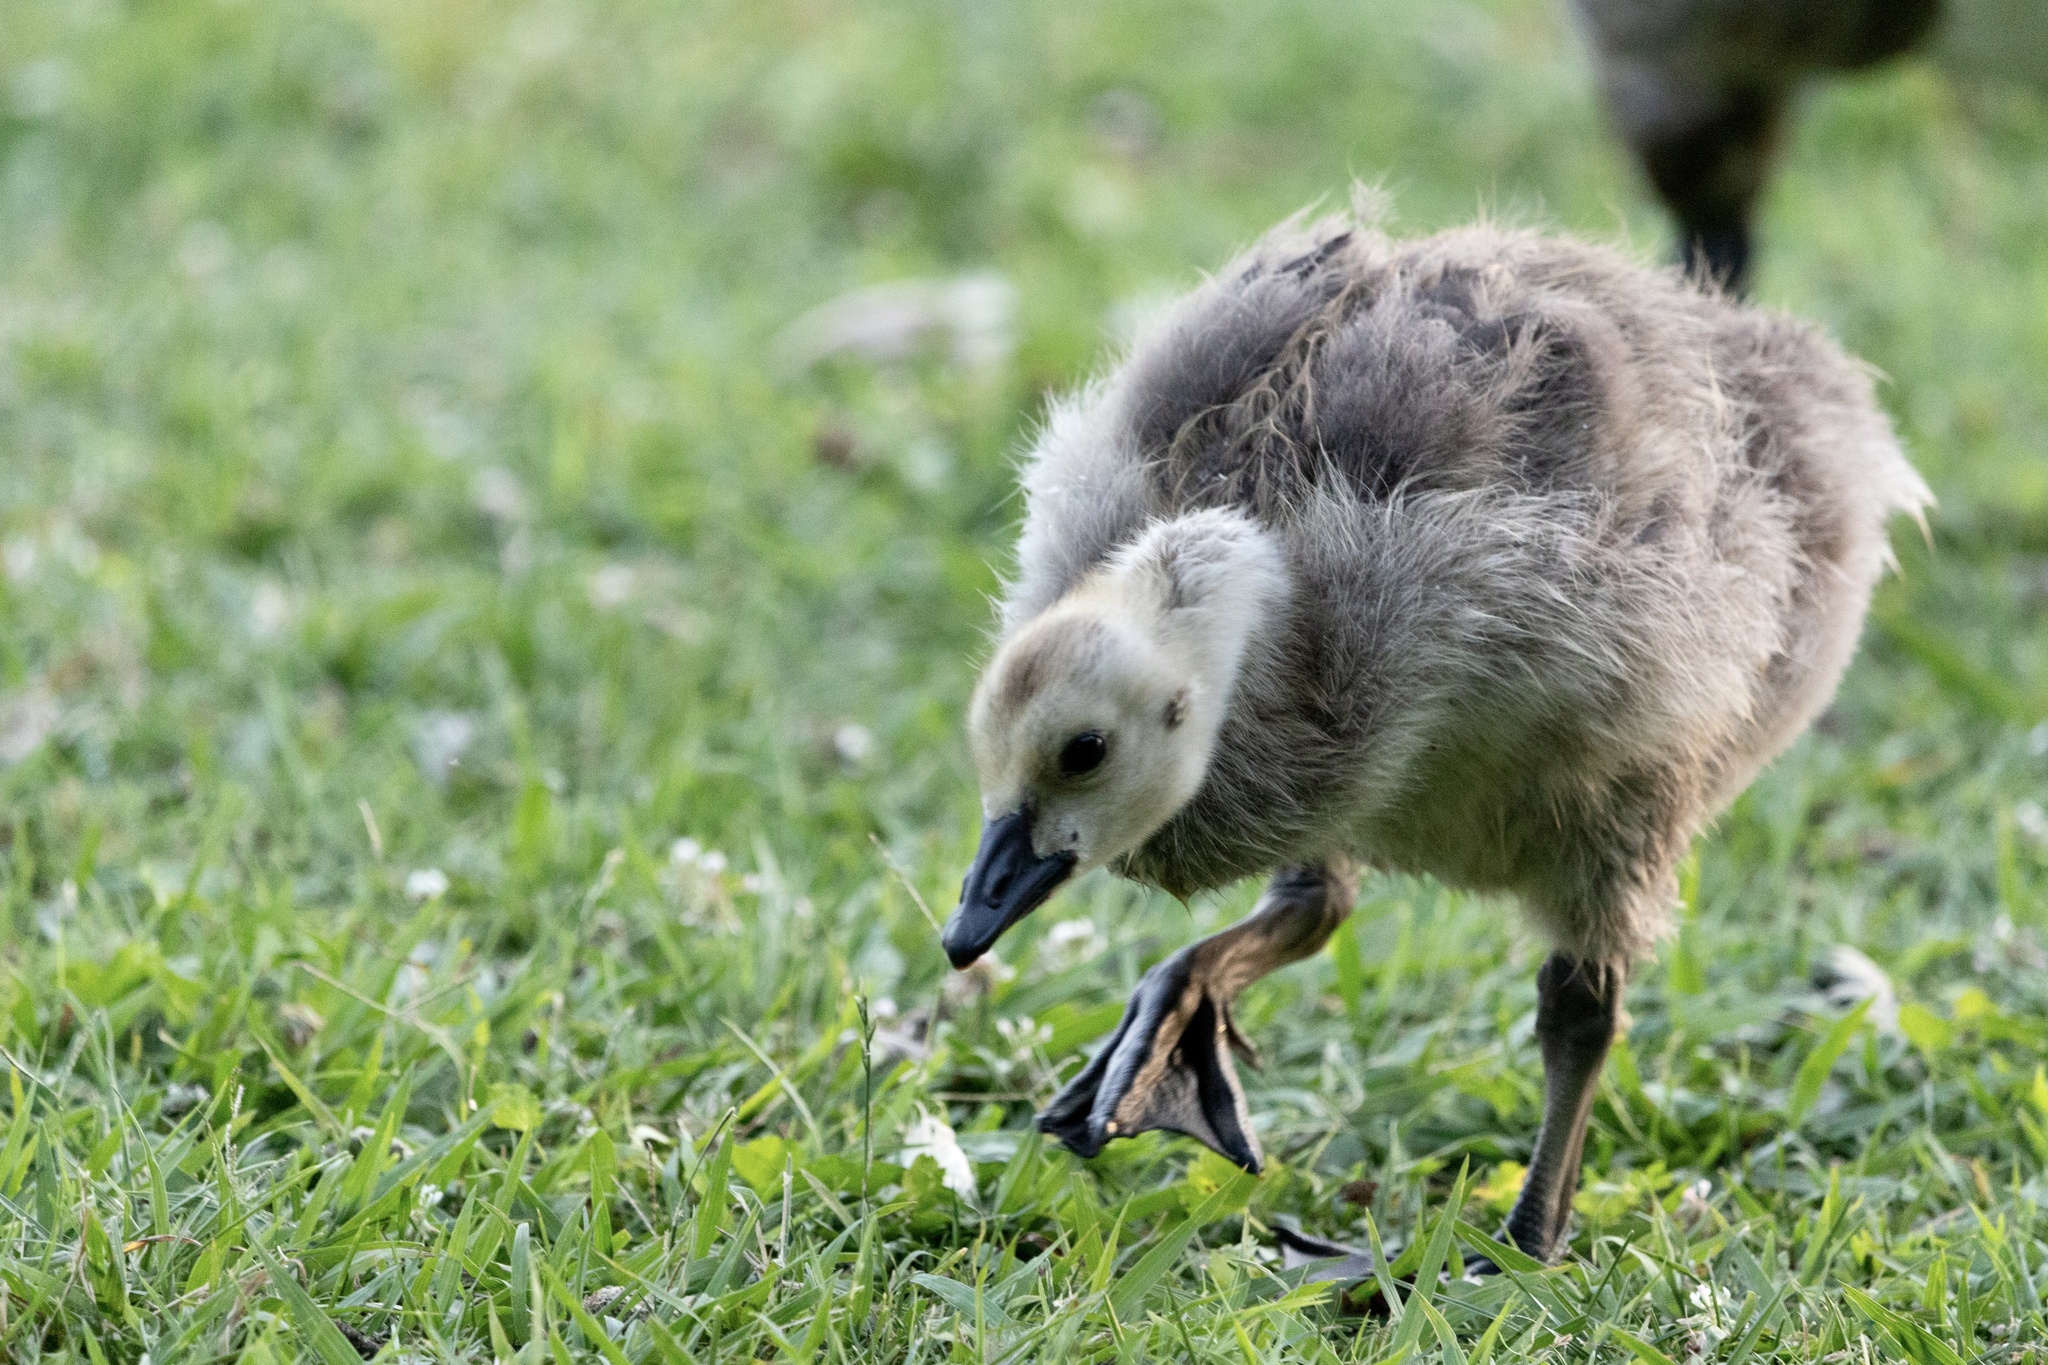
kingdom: Animalia
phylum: Chordata
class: Aves
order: Anseriformes
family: Anatidae
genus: Branta
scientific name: Branta canadensis
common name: Canada goose
